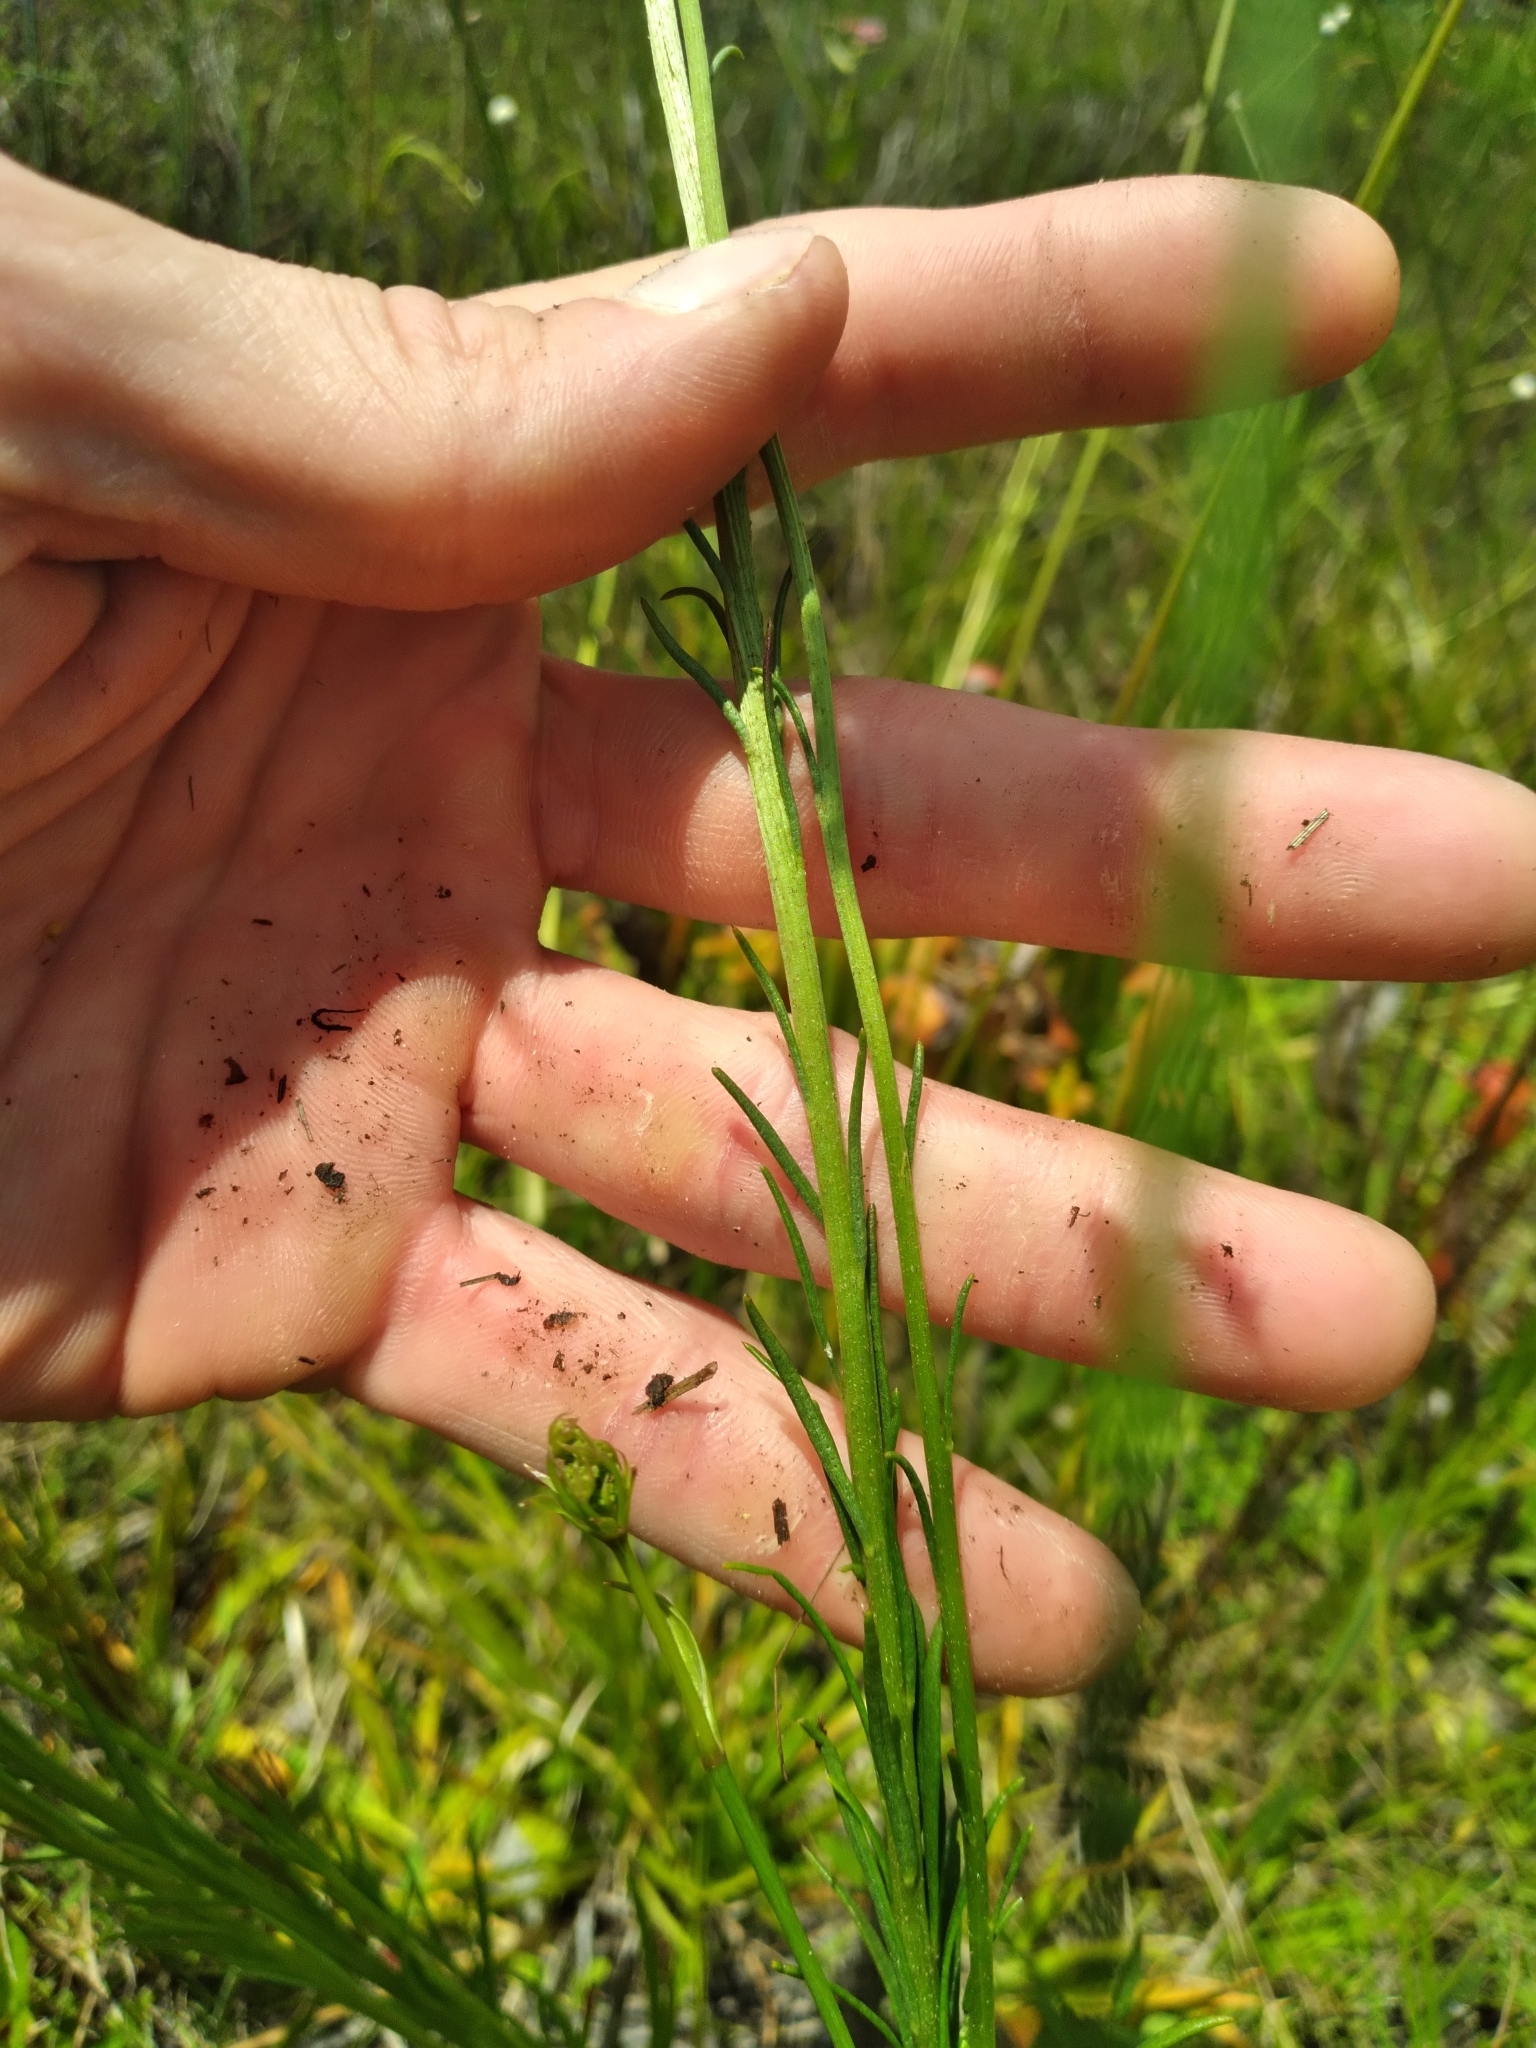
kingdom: Plantae
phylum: Tracheophyta
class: Magnoliopsida
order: Asterales
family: Asteraceae
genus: Marshallia
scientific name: Marshallia graminifolia
